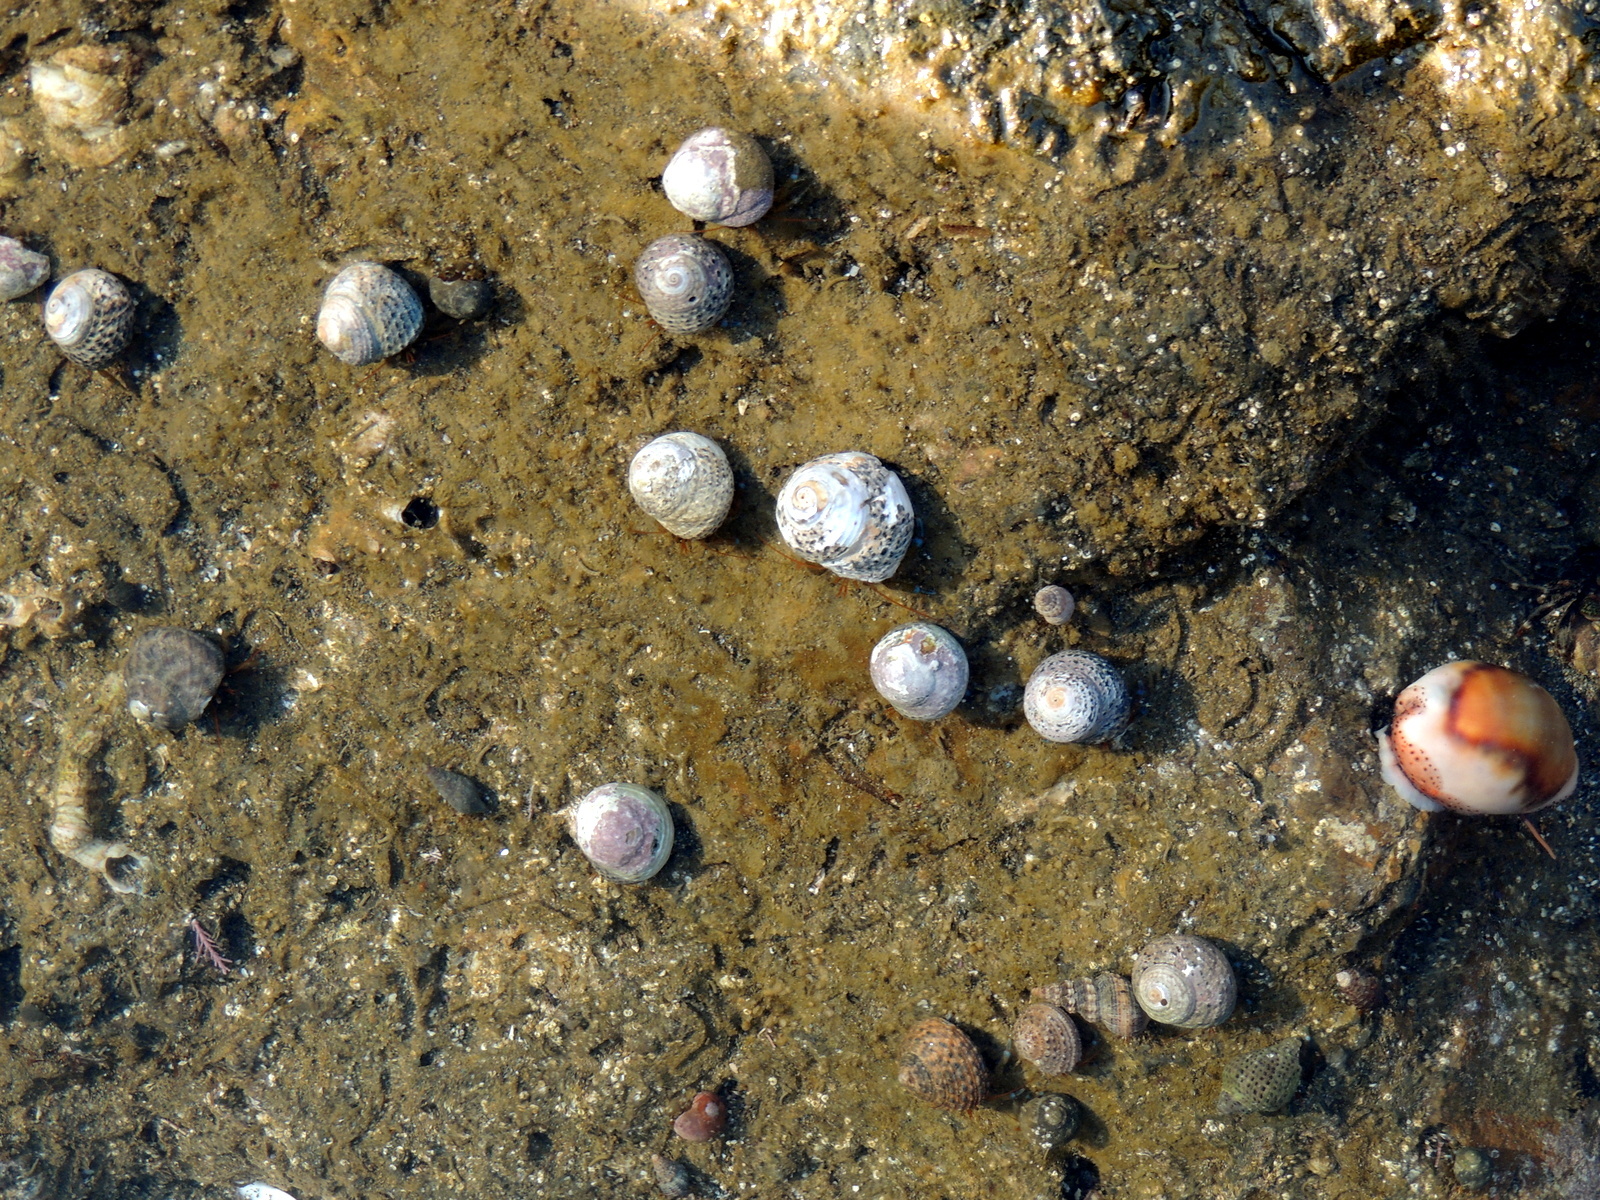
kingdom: Animalia
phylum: Mollusca
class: Gastropoda
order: Trochida
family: Tegulidae
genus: Tegula
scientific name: Tegula eiseni
